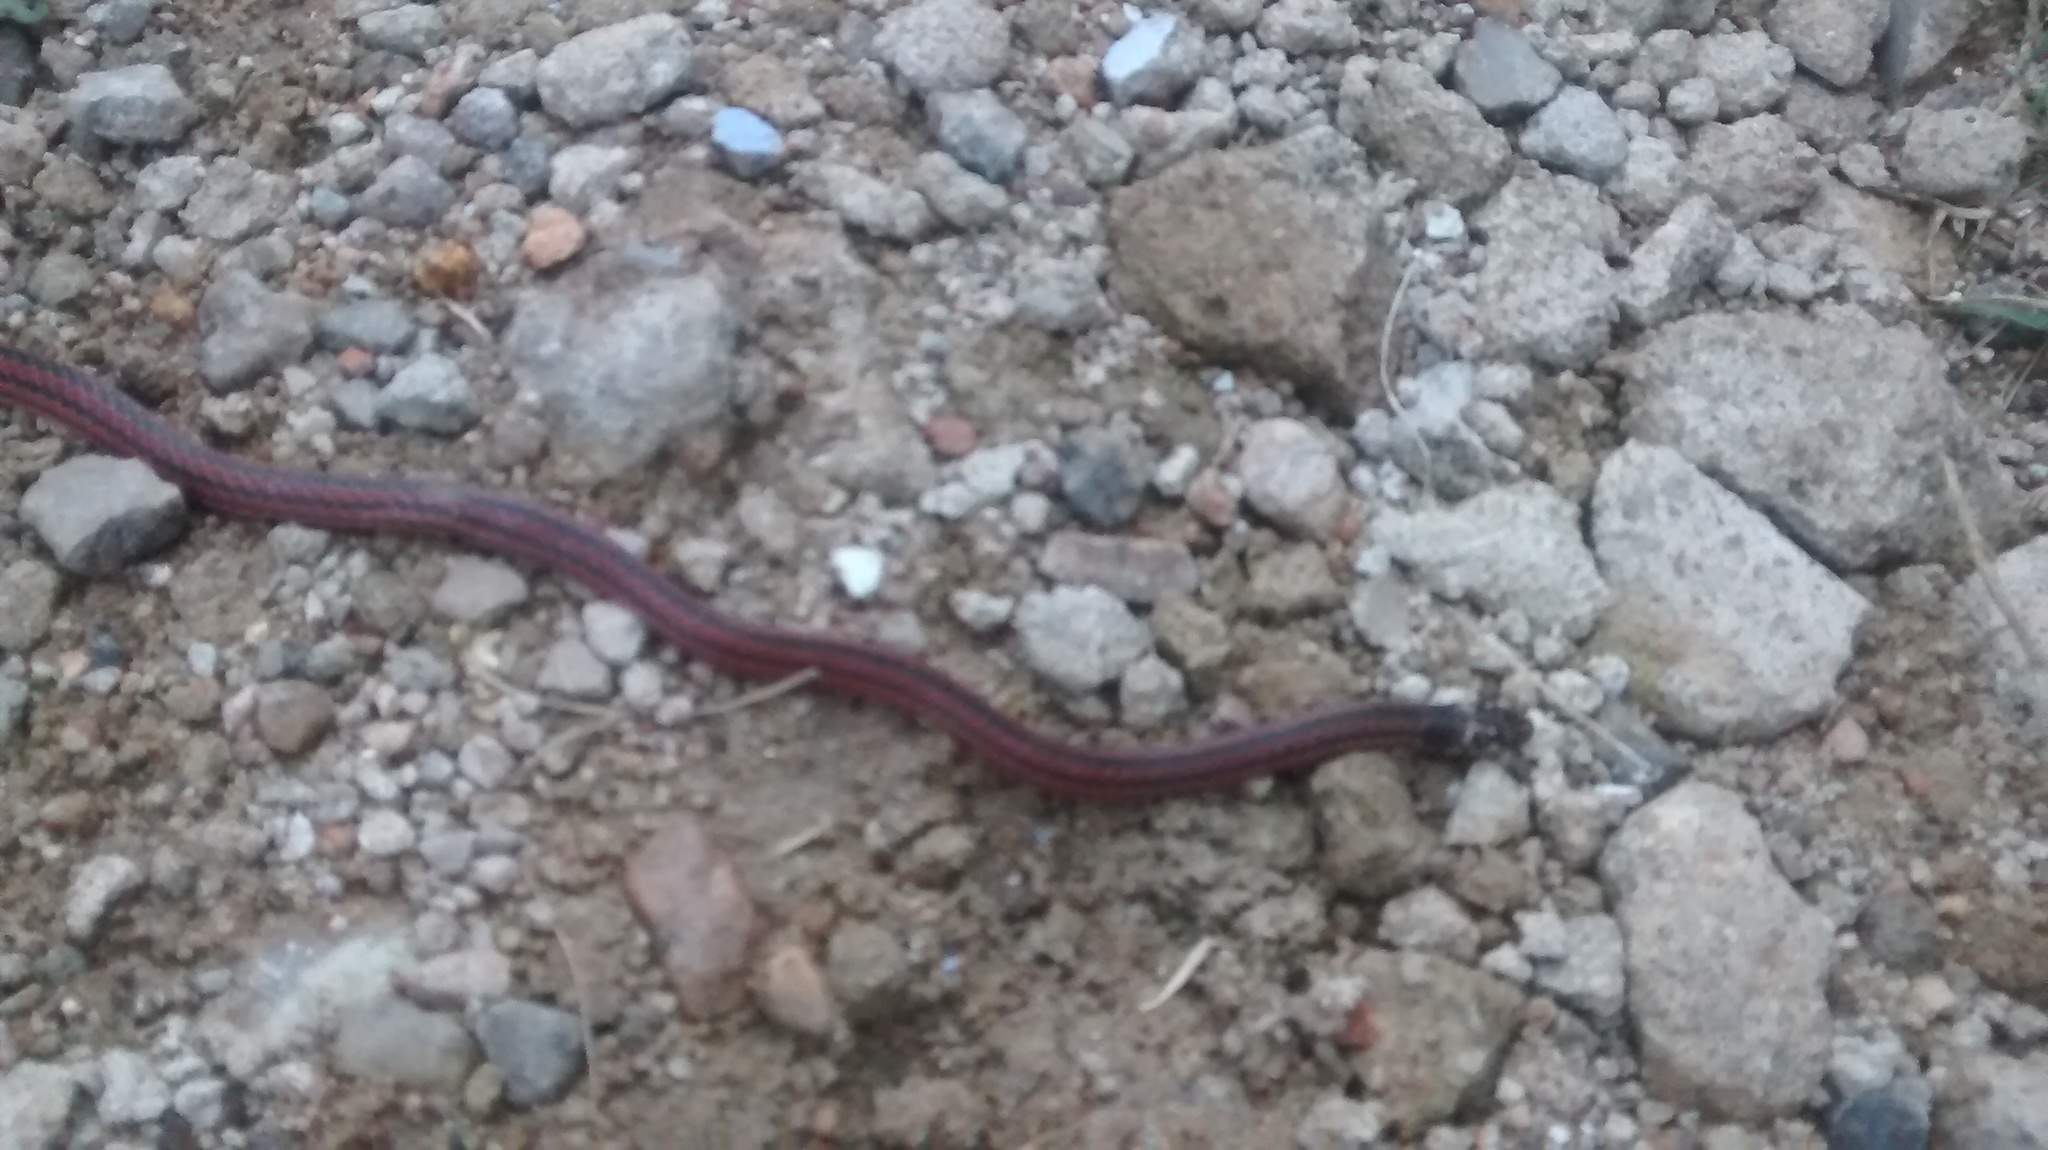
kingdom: Animalia
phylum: Chordata
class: Squamata
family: Elapidae
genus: Calliophis
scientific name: Calliophis nigrescens
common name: Black coral snake
